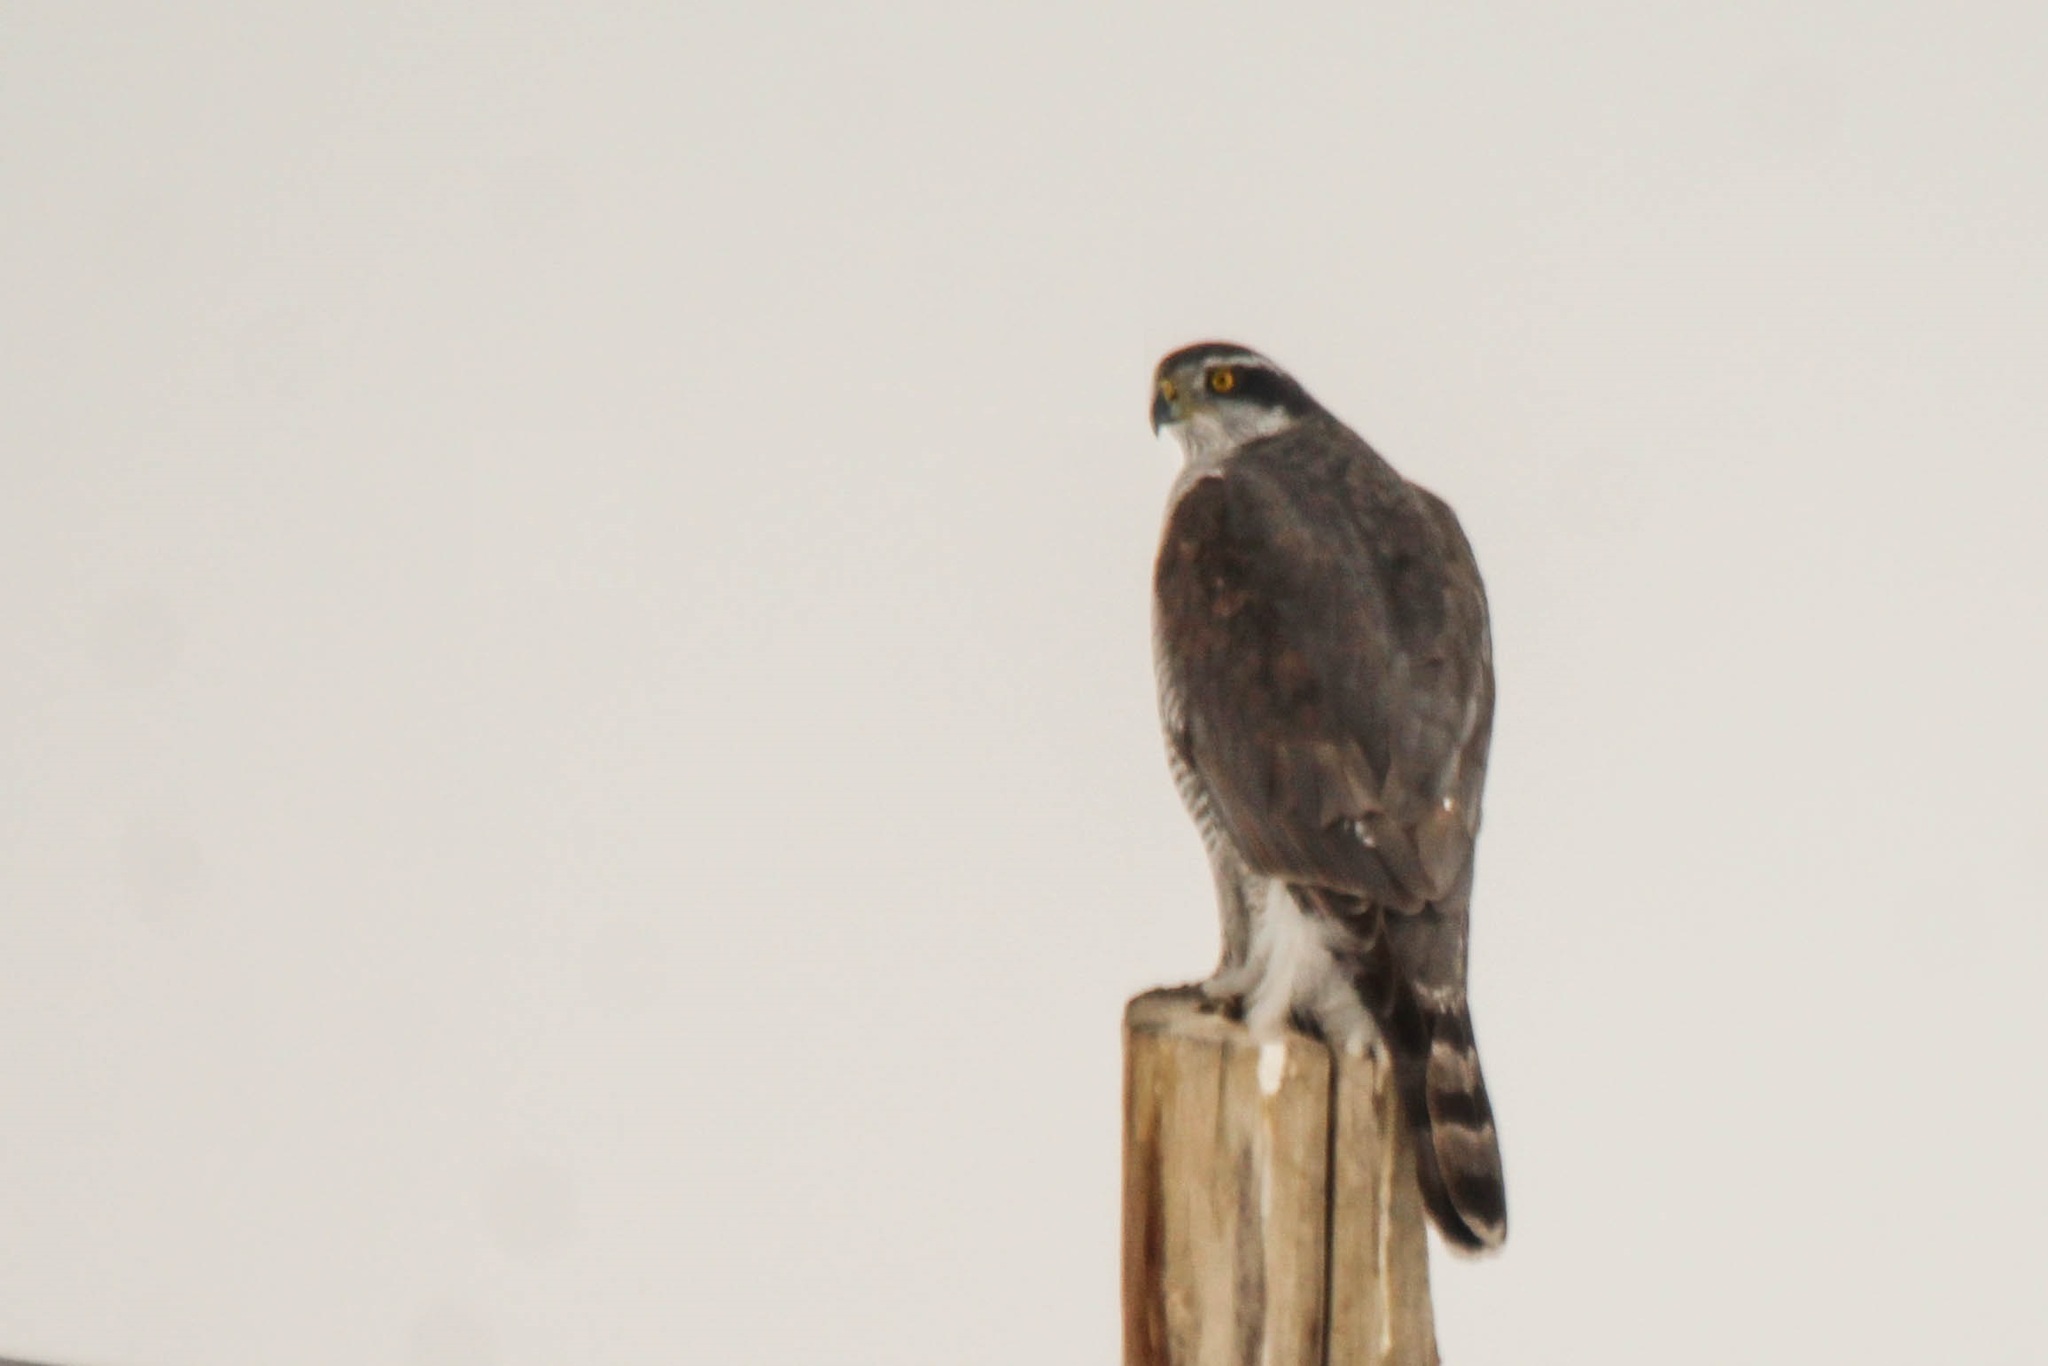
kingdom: Animalia
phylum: Chordata
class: Aves
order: Accipitriformes
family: Accipitridae
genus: Accipiter
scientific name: Accipiter gentilis
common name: Northern goshawk
